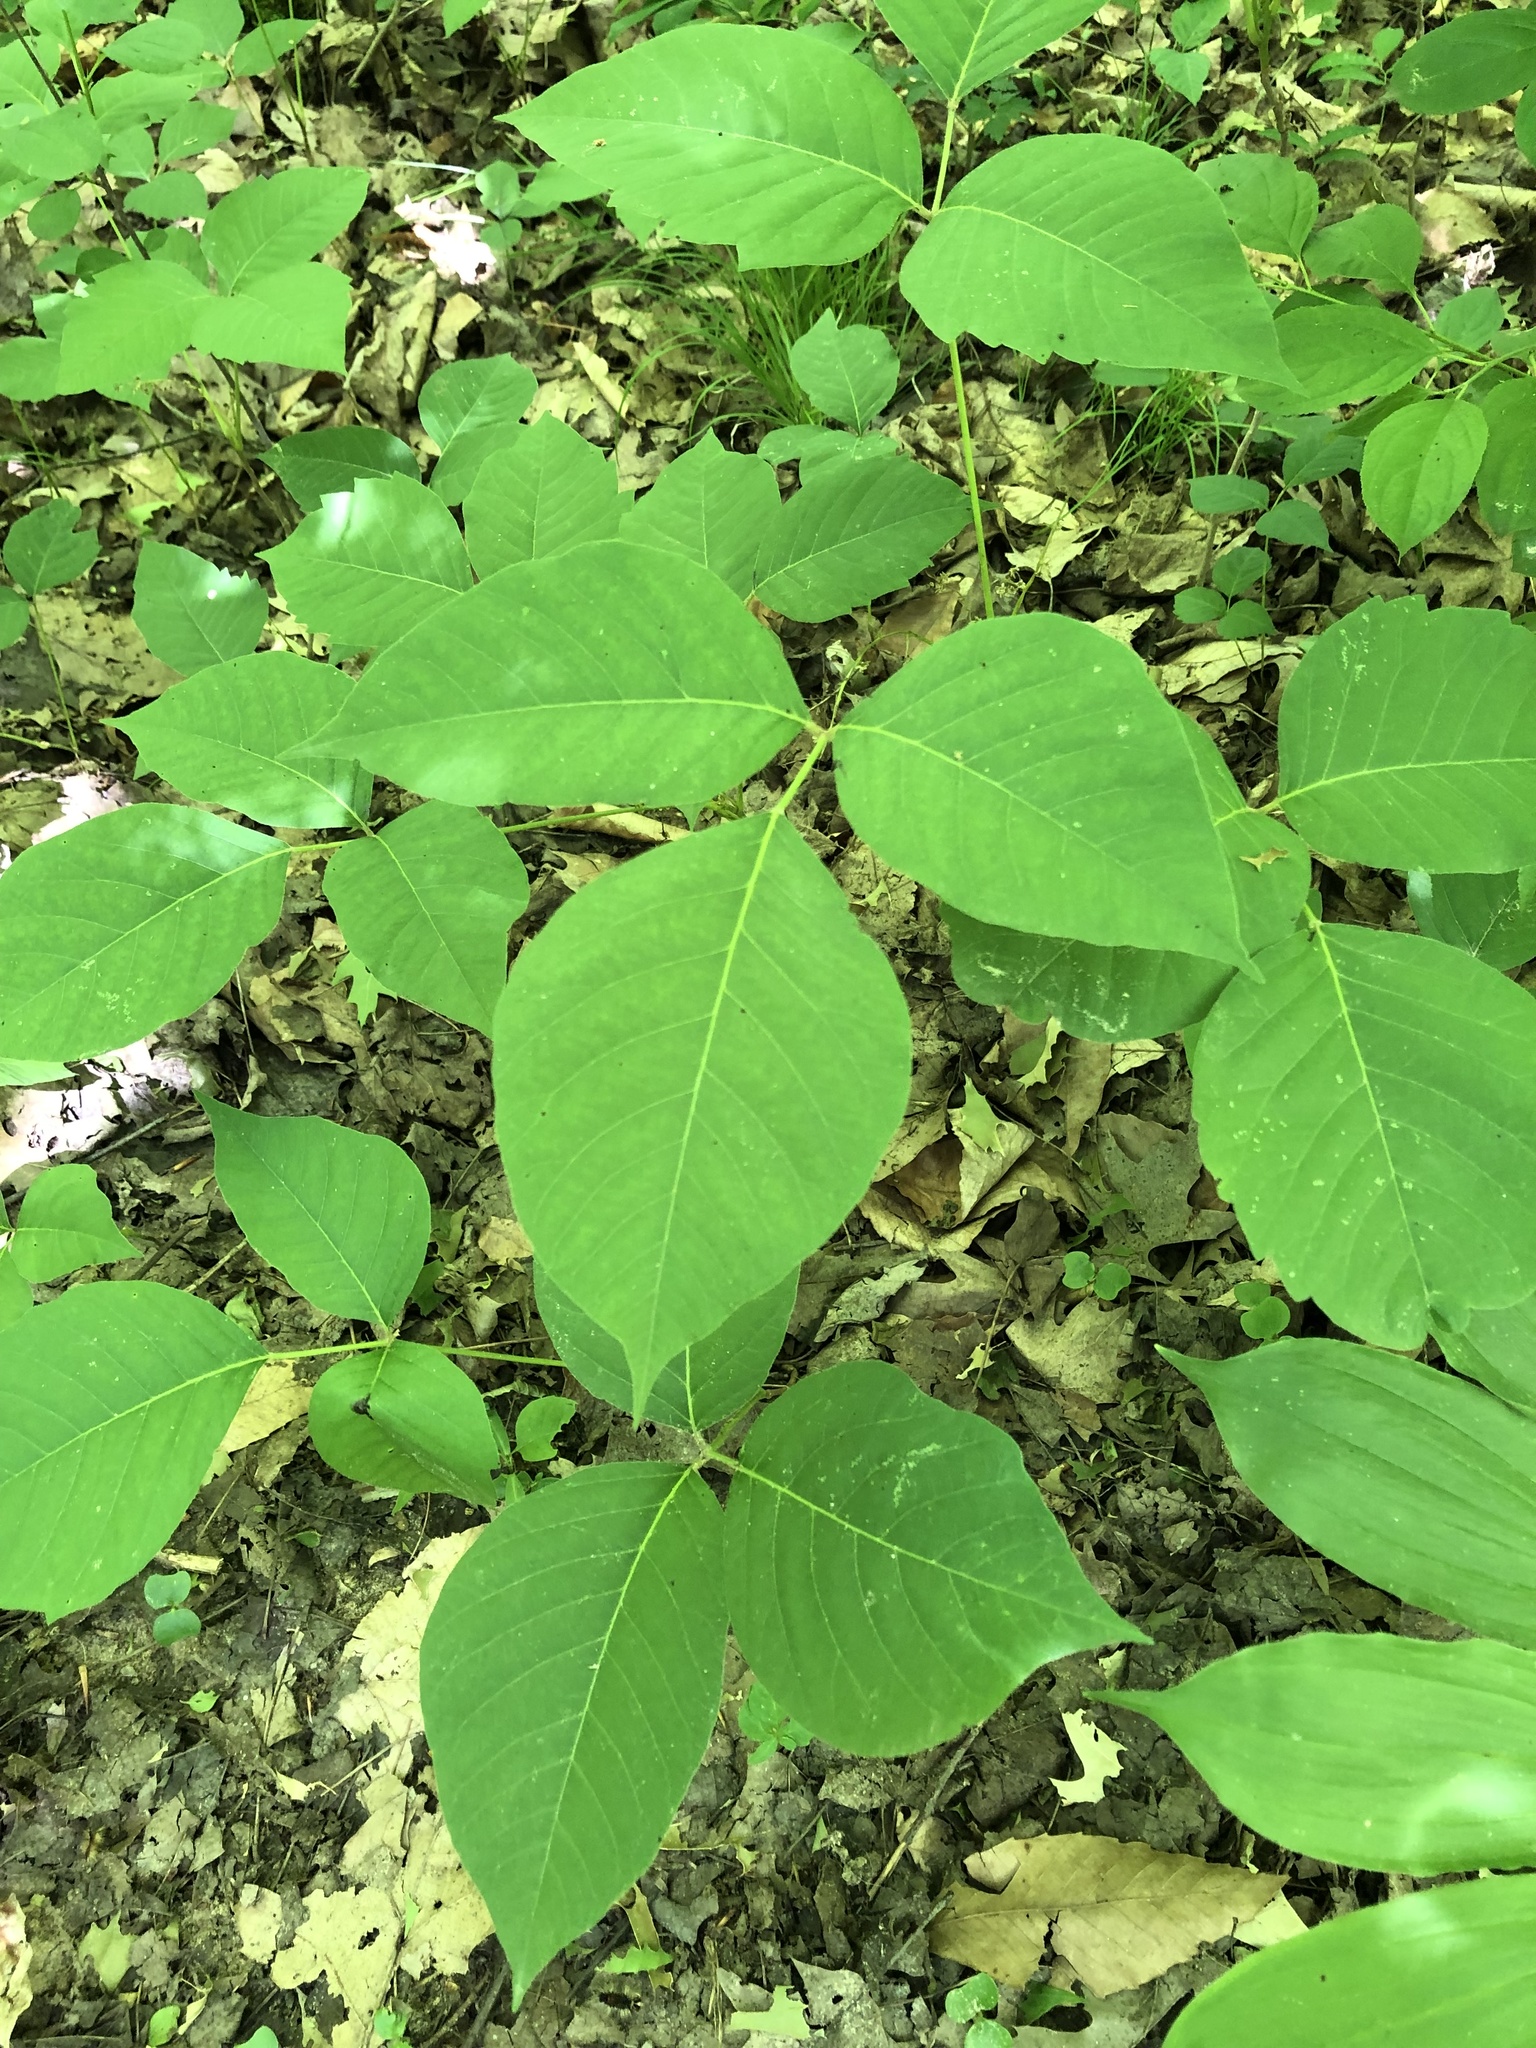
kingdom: Plantae
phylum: Tracheophyta
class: Magnoliopsida
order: Sapindales
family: Anacardiaceae
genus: Toxicodendron
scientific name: Toxicodendron rydbergii
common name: Rydberg's poison-ivy
